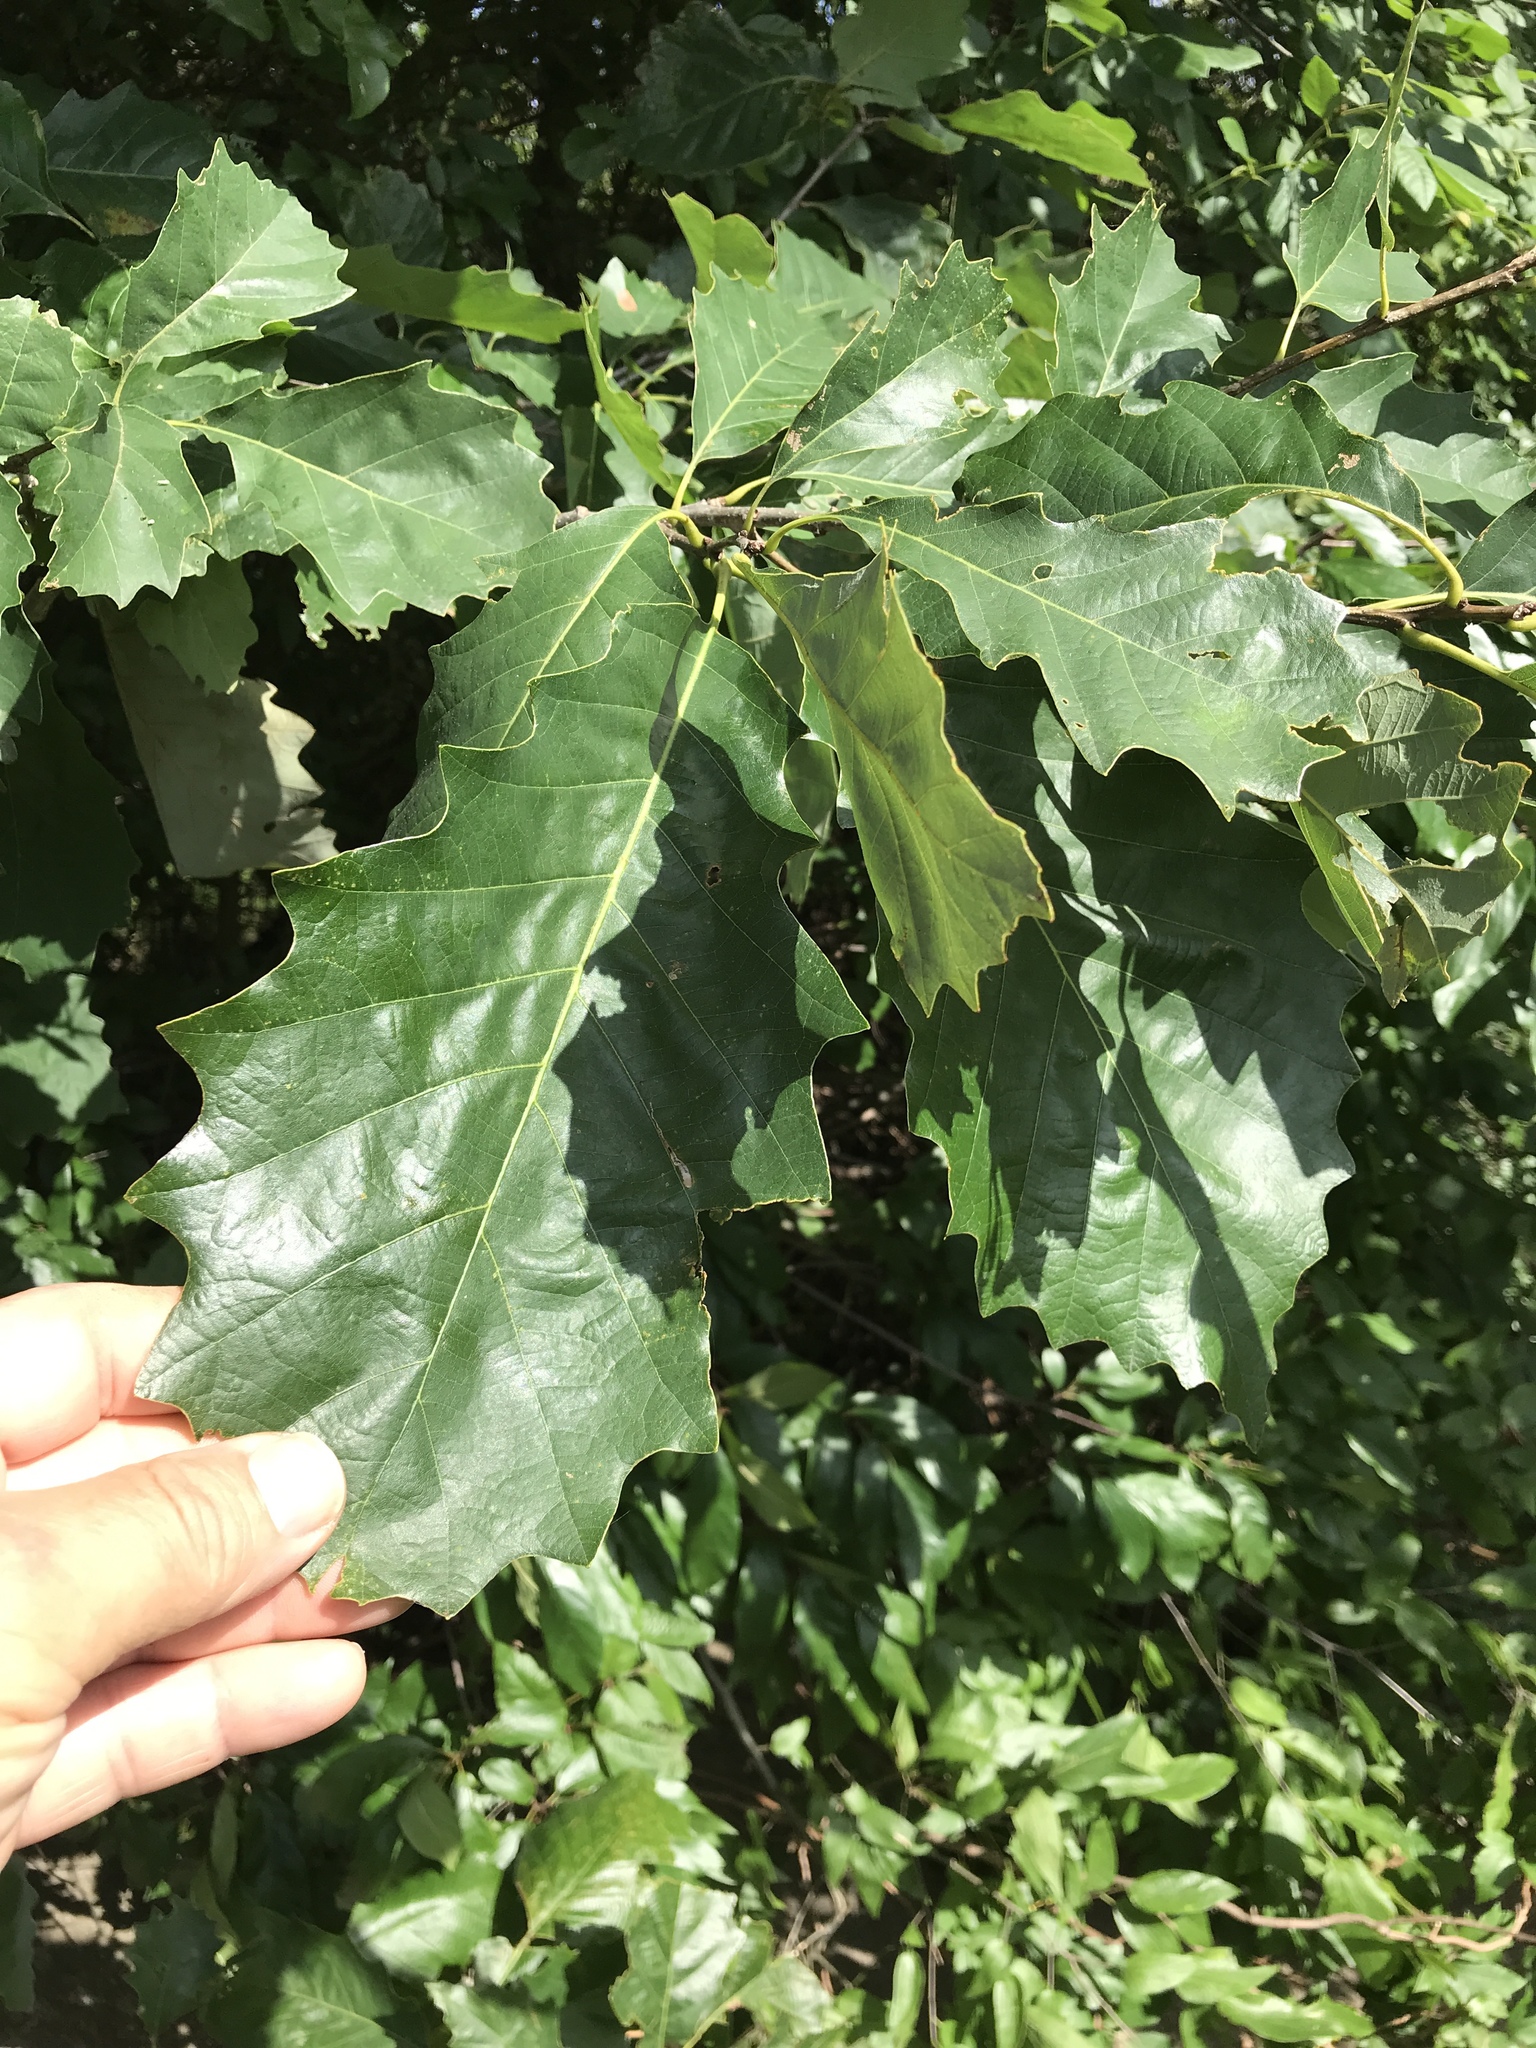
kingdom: Plantae
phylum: Tracheophyta
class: Magnoliopsida
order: Fagales
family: Fagaceae
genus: Quercus
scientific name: Quercus muehlenbergii
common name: Chinkapin oak
